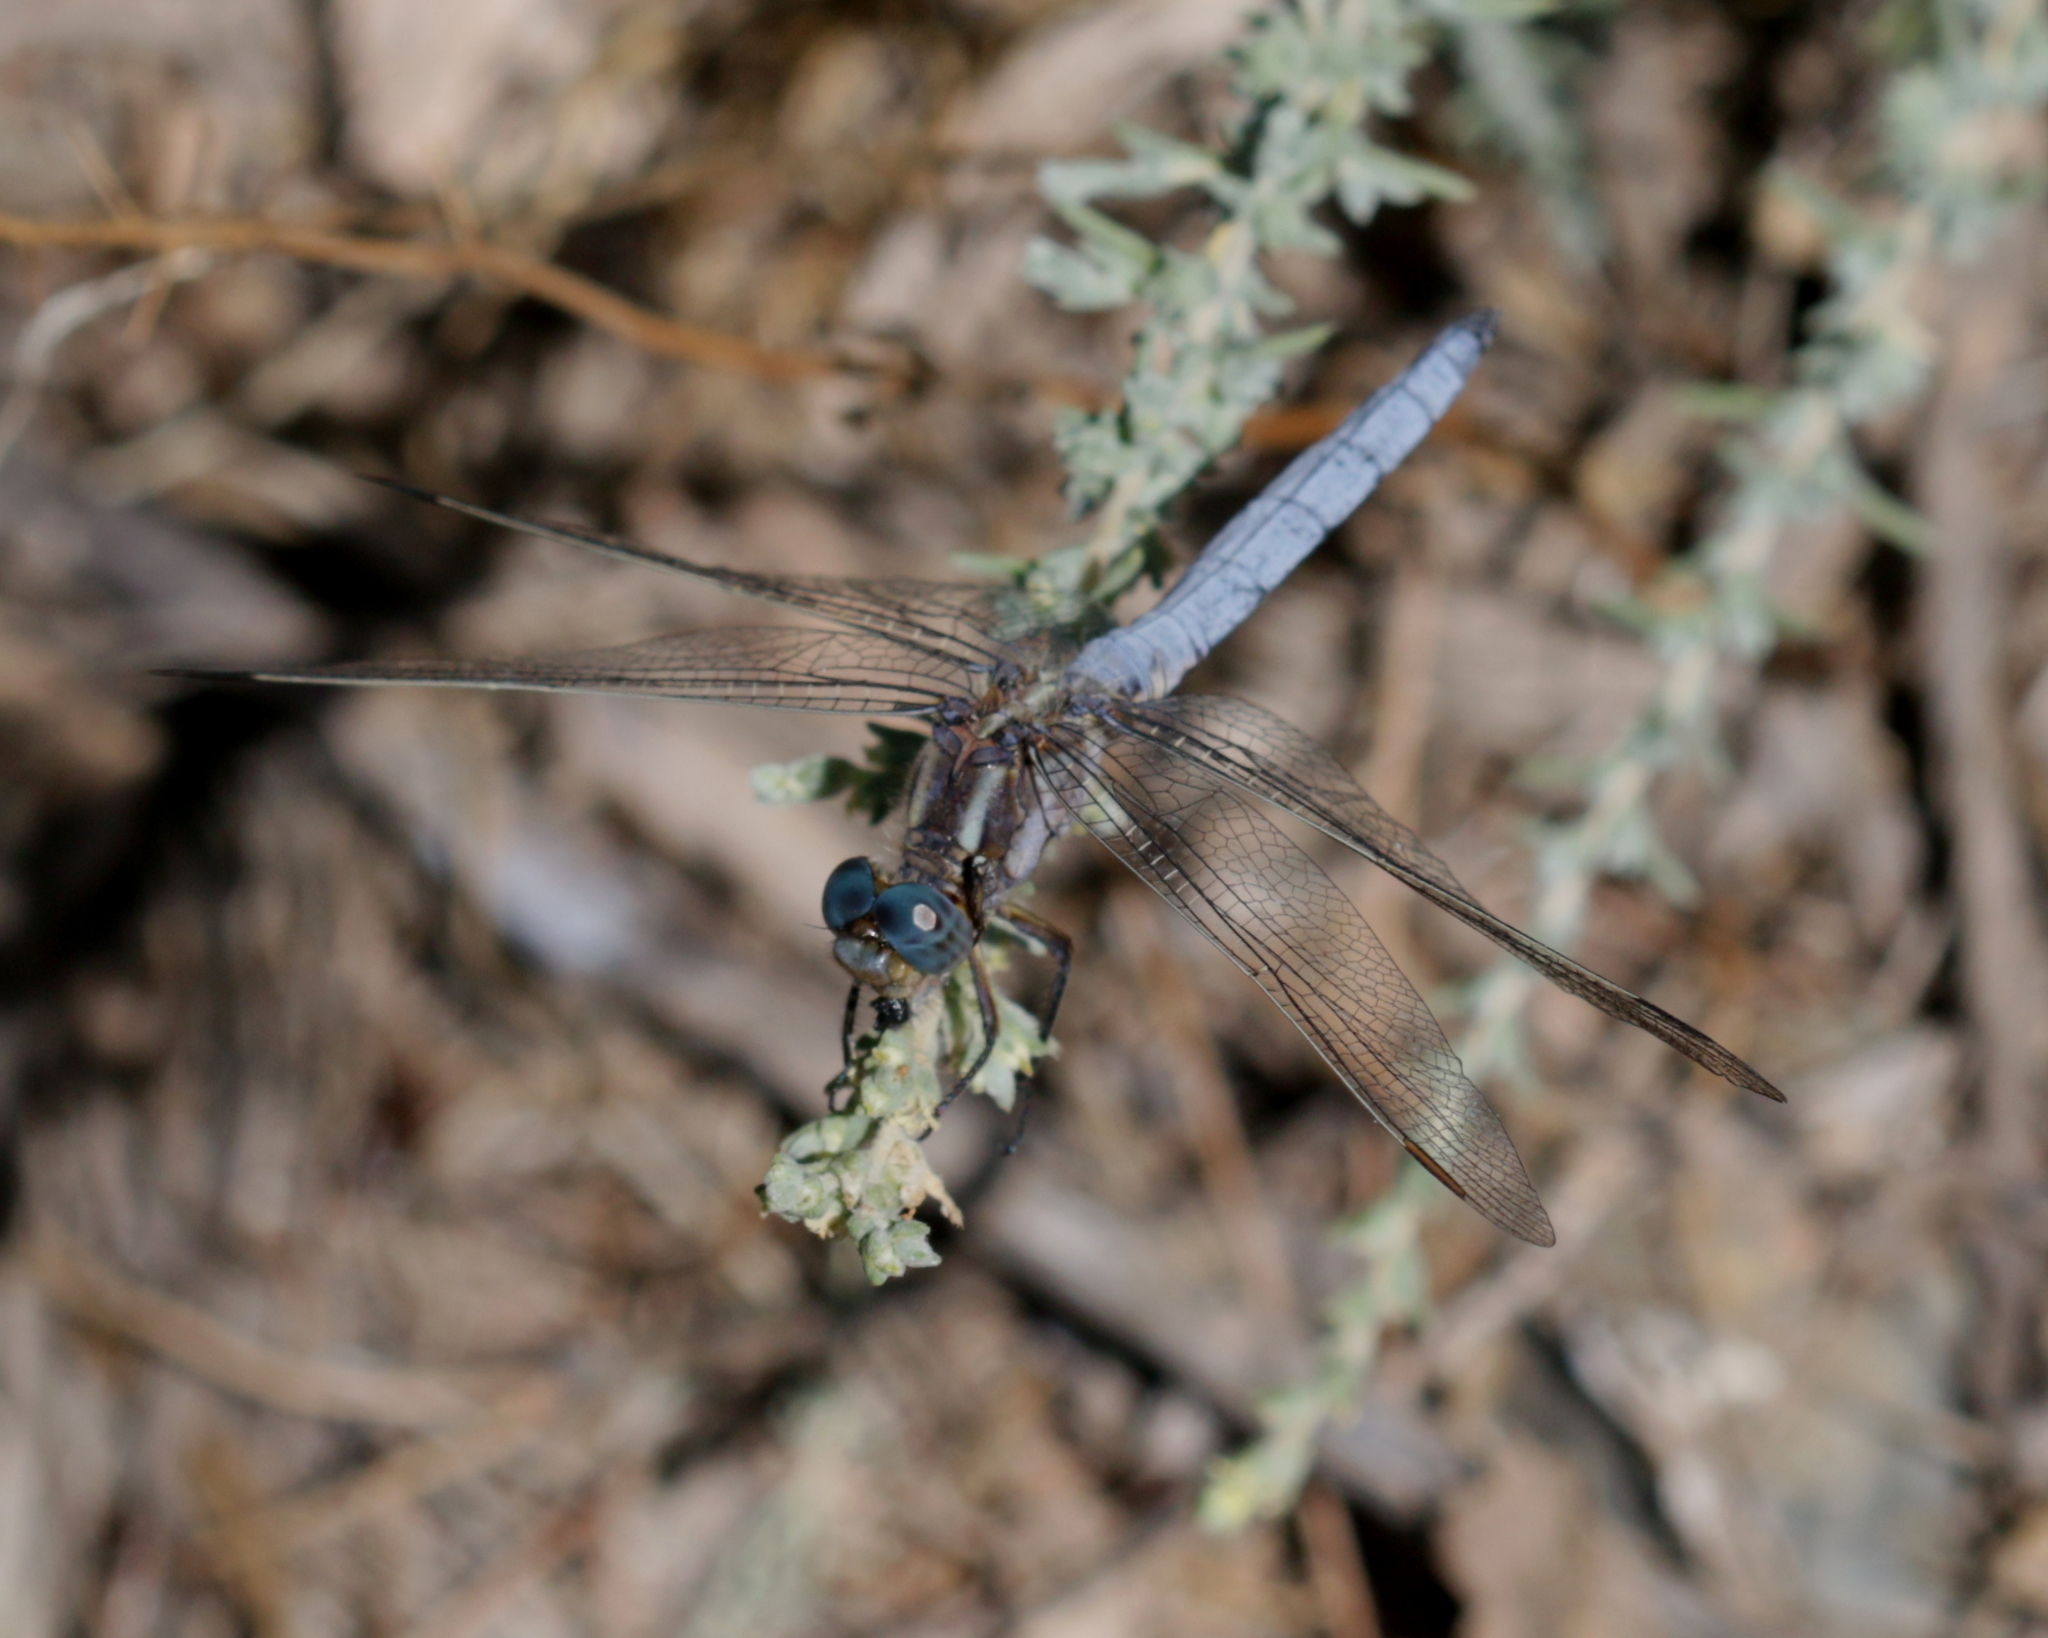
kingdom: Animalia
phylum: Arthropoda
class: Insecta
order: Odonata
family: Libellulidae
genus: Orthetrum
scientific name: Orthetrum coerulescens
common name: Keeled skimmer
